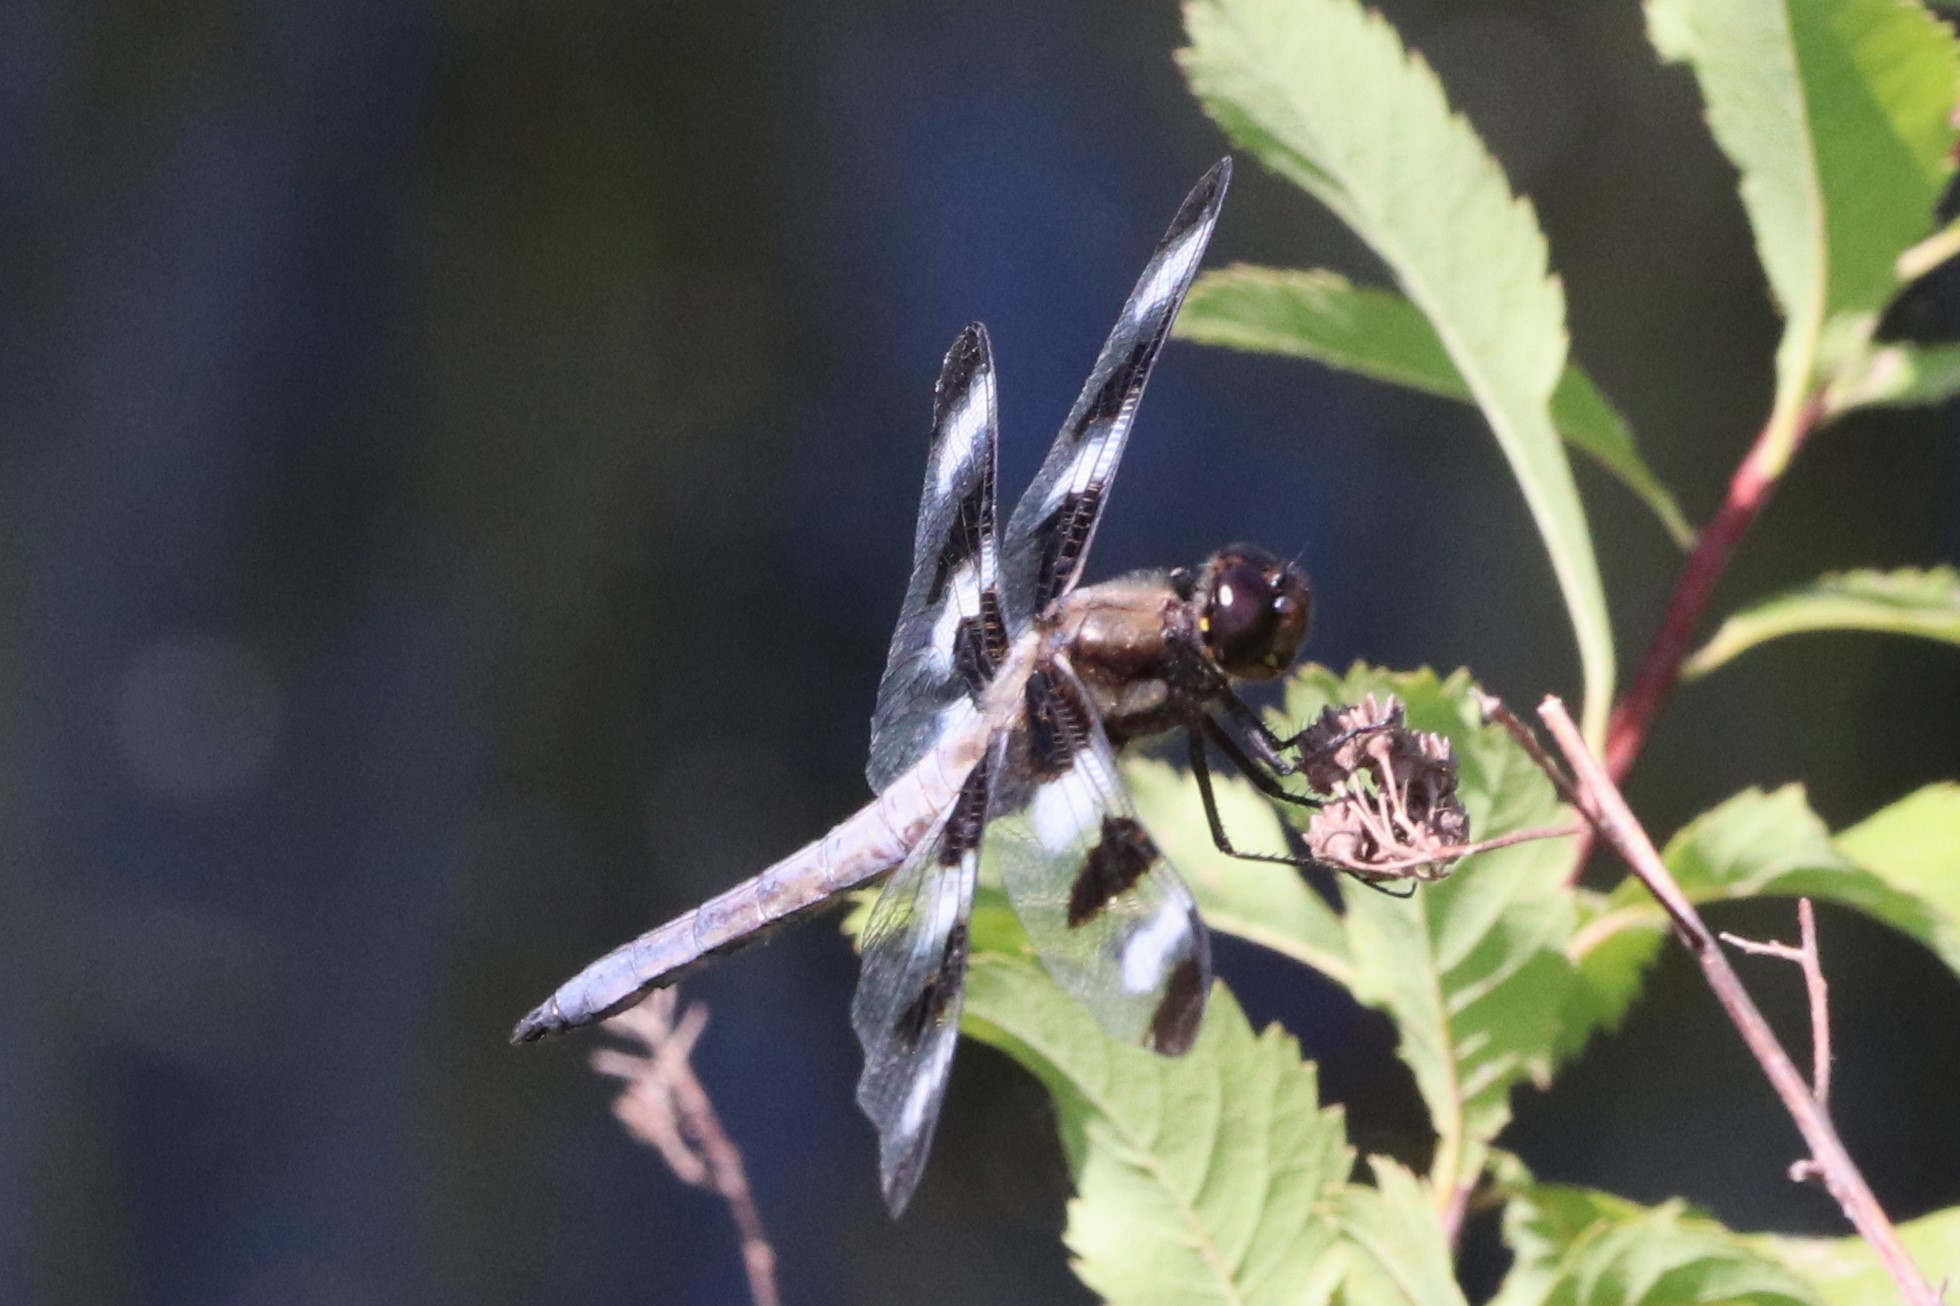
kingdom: Animalia
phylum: Arthropoda
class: Insecta
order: Odonata
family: Libellulidae
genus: Libellula
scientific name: Libellula pulchella
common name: Twelve-spotted skimmer
